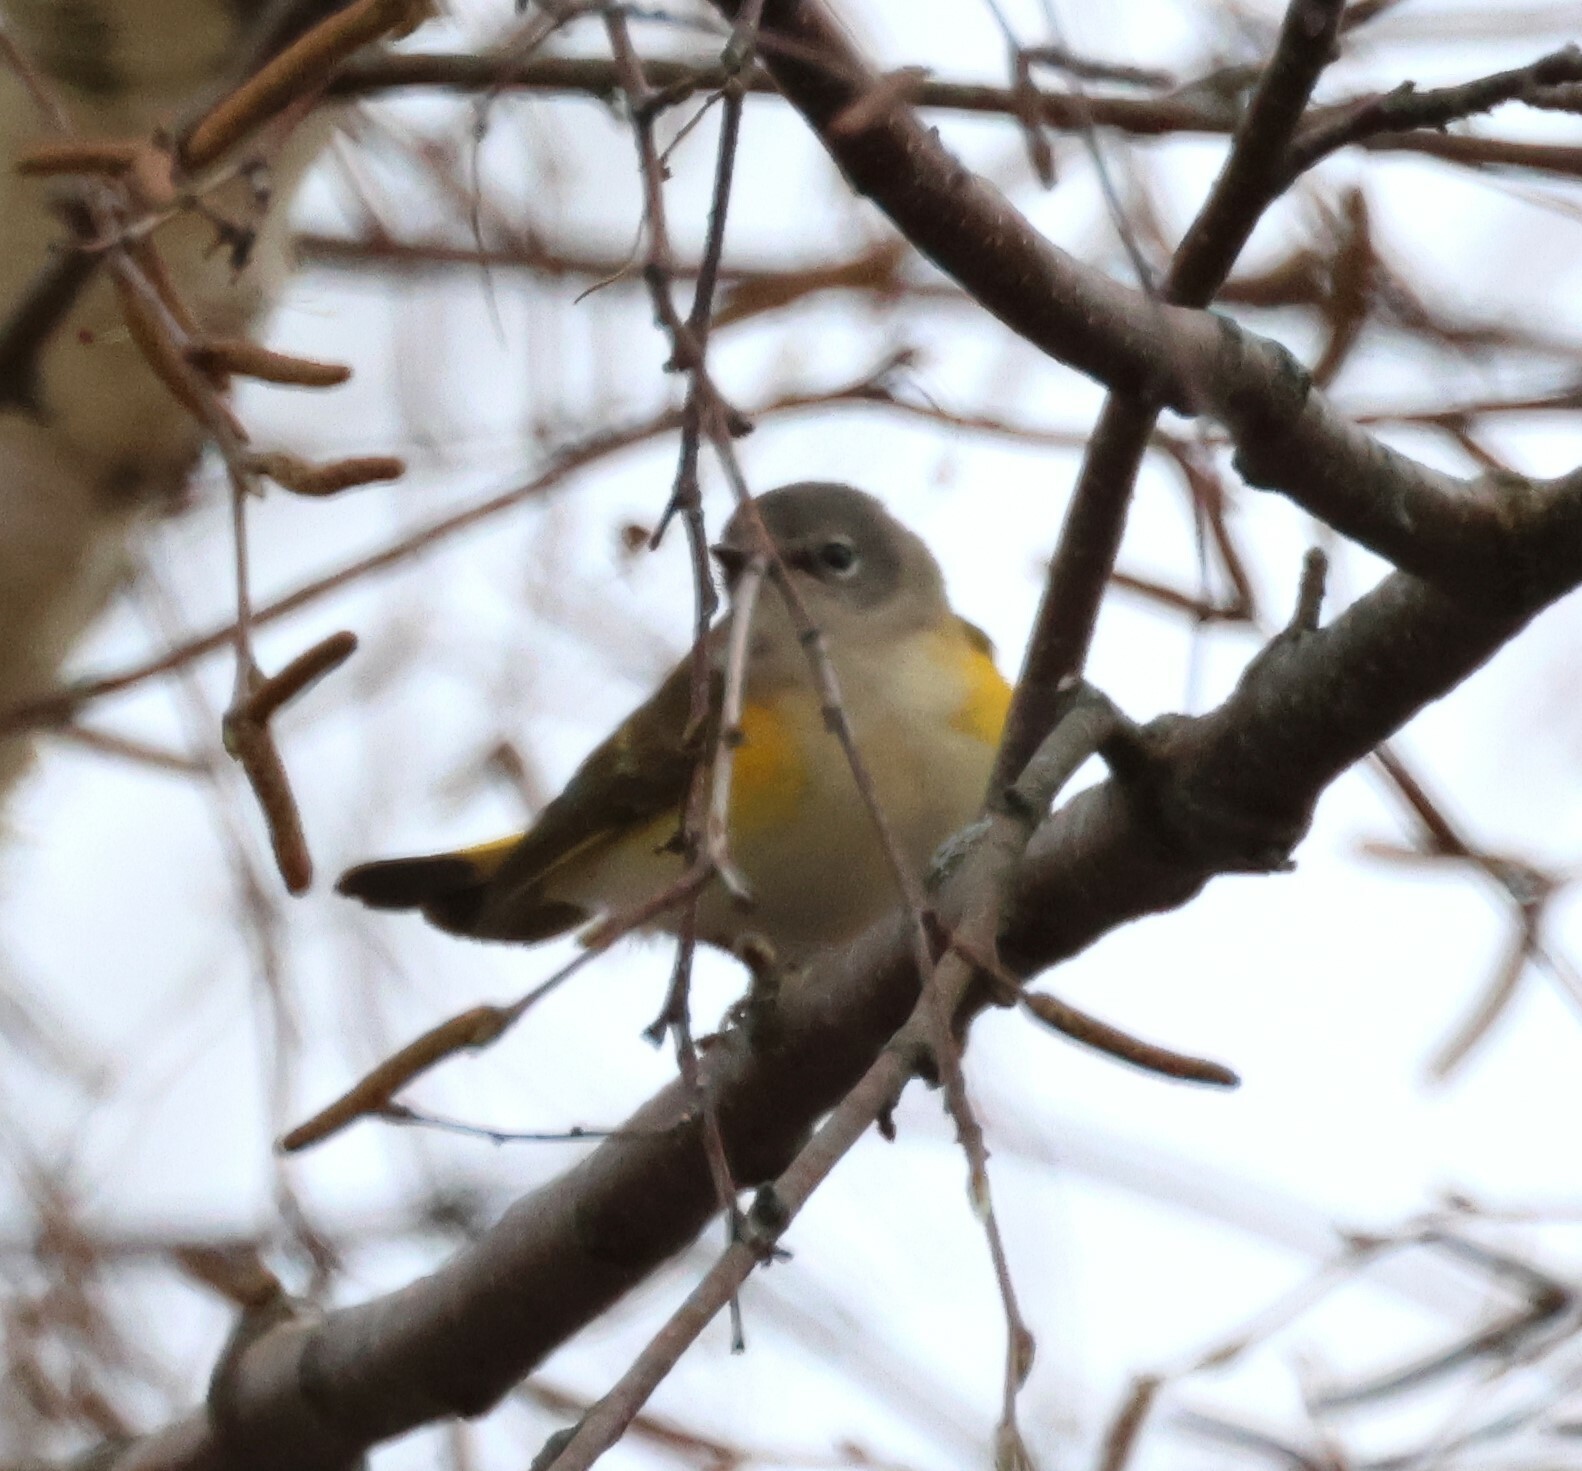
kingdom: Animalia
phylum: Chordata
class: Aves
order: Passeriformes
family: Parulidae
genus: Setophaga
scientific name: Setophaga ruticilla
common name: American redstart
